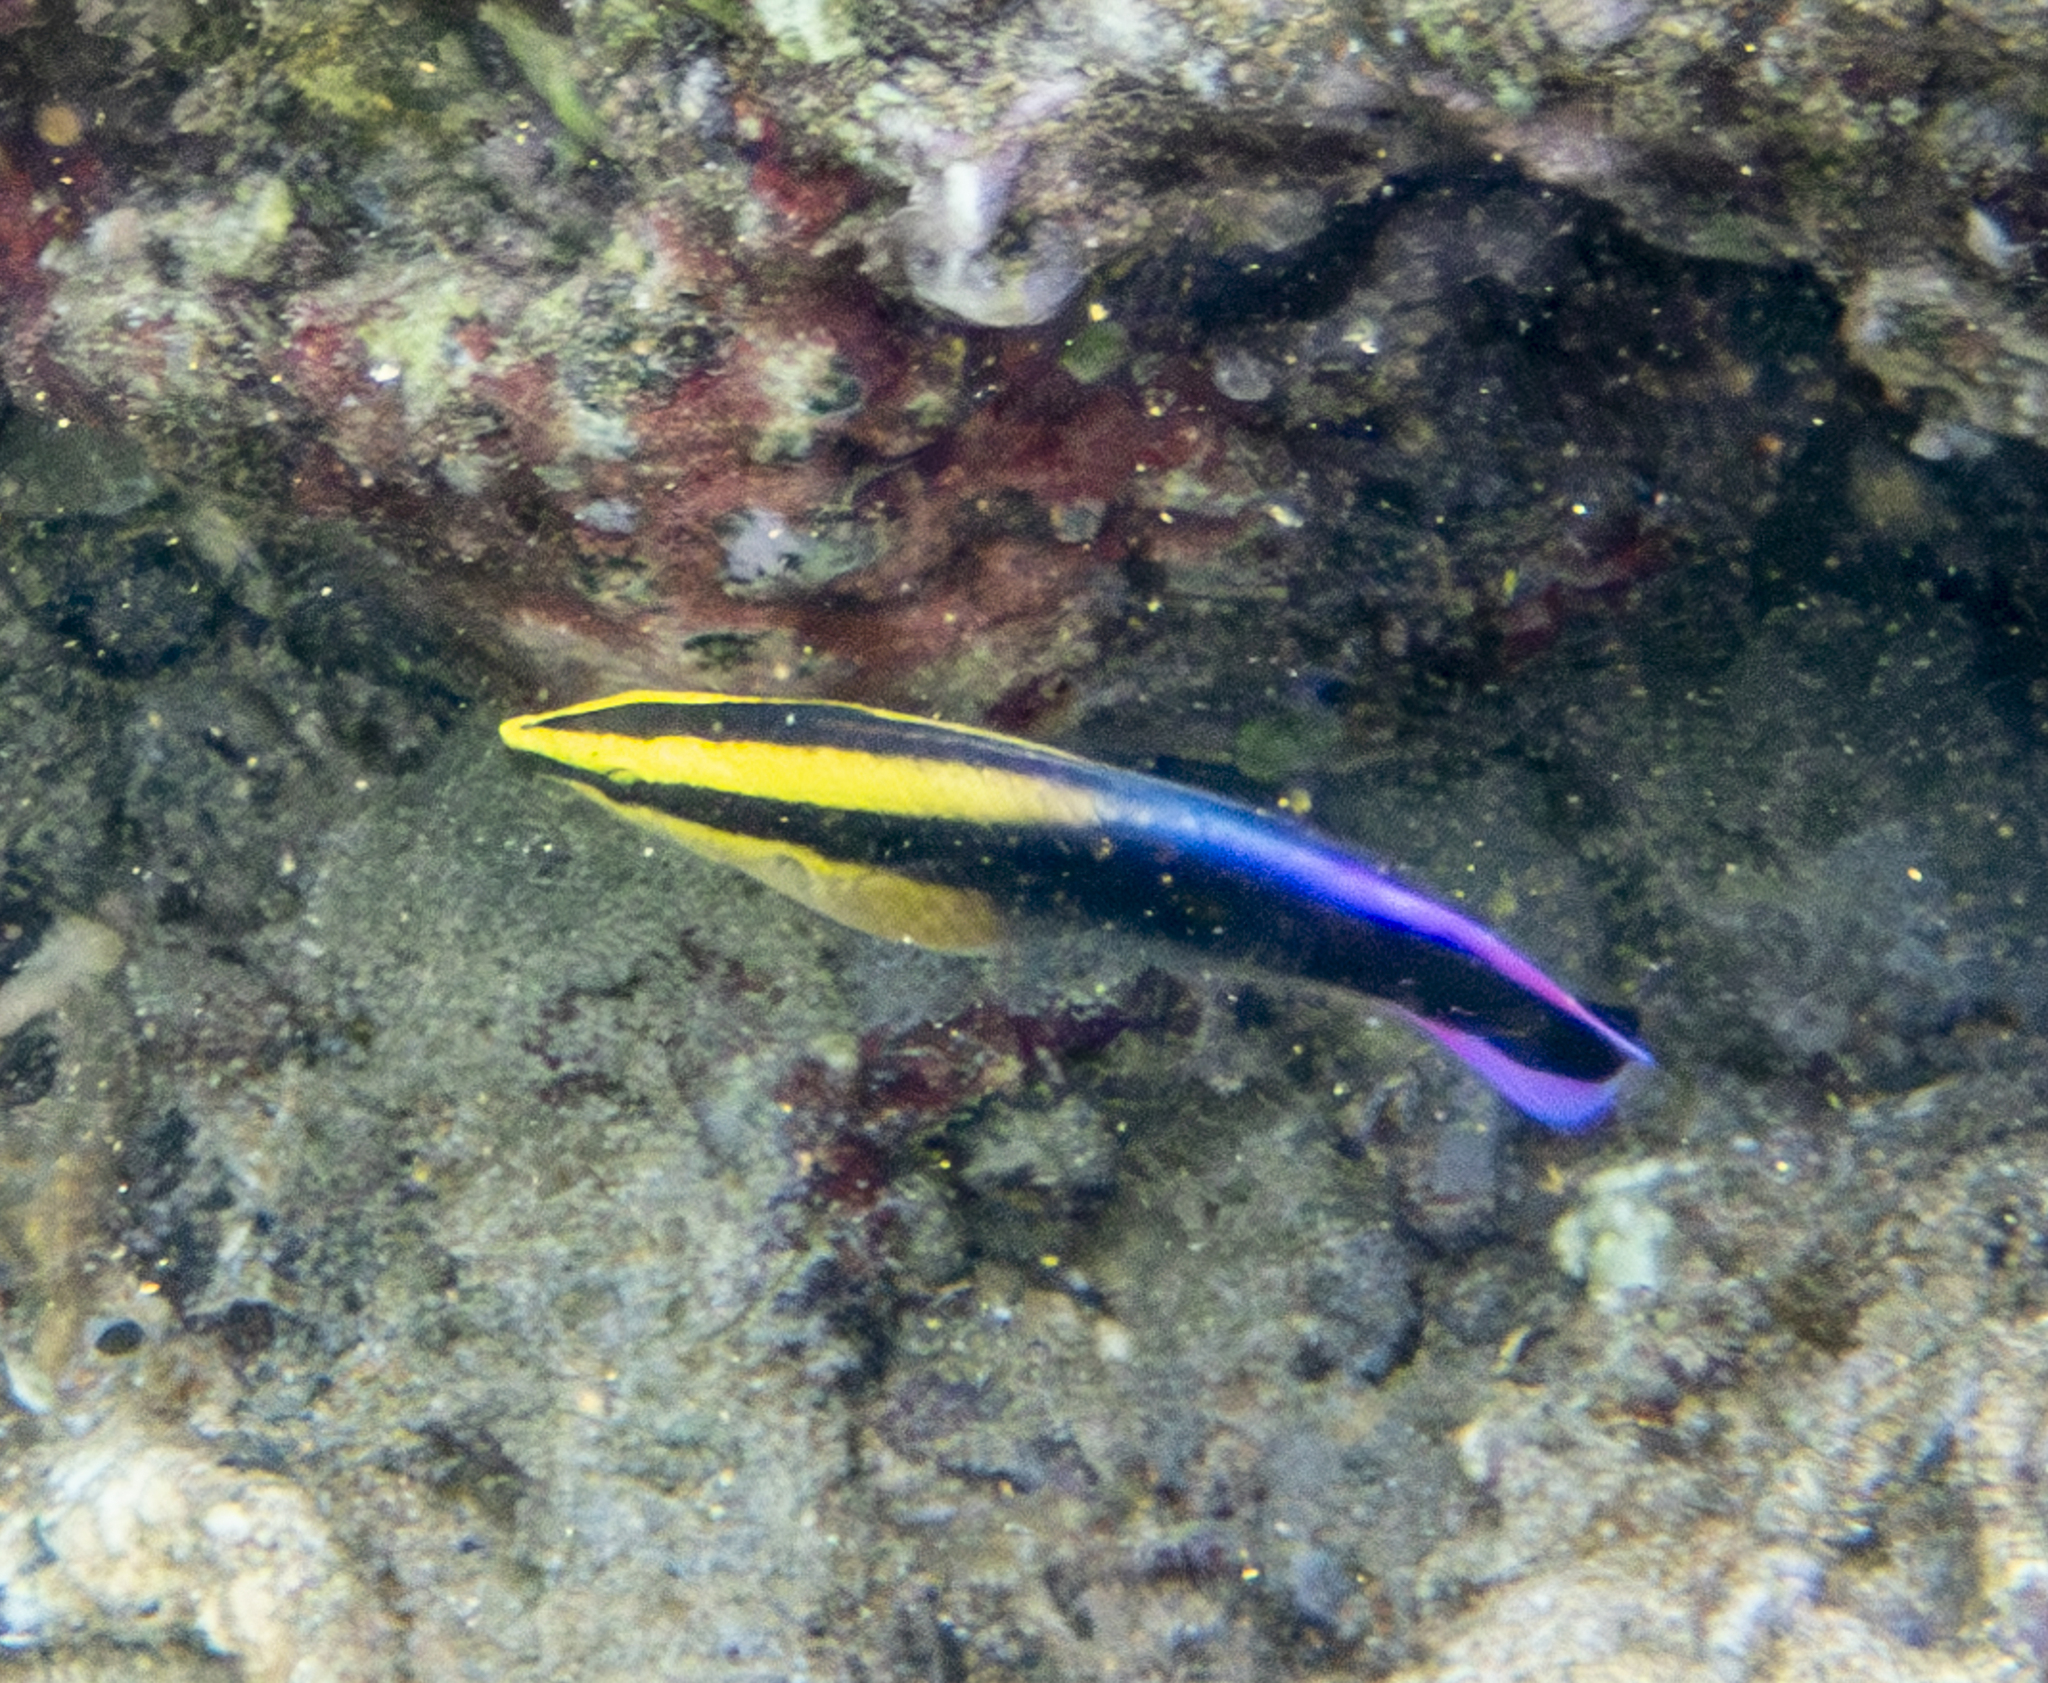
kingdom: Animalia
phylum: Chordata
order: Perciformes
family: Labridae
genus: Labroides
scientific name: Labroides phthirophagus
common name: Cleaner wrasse
